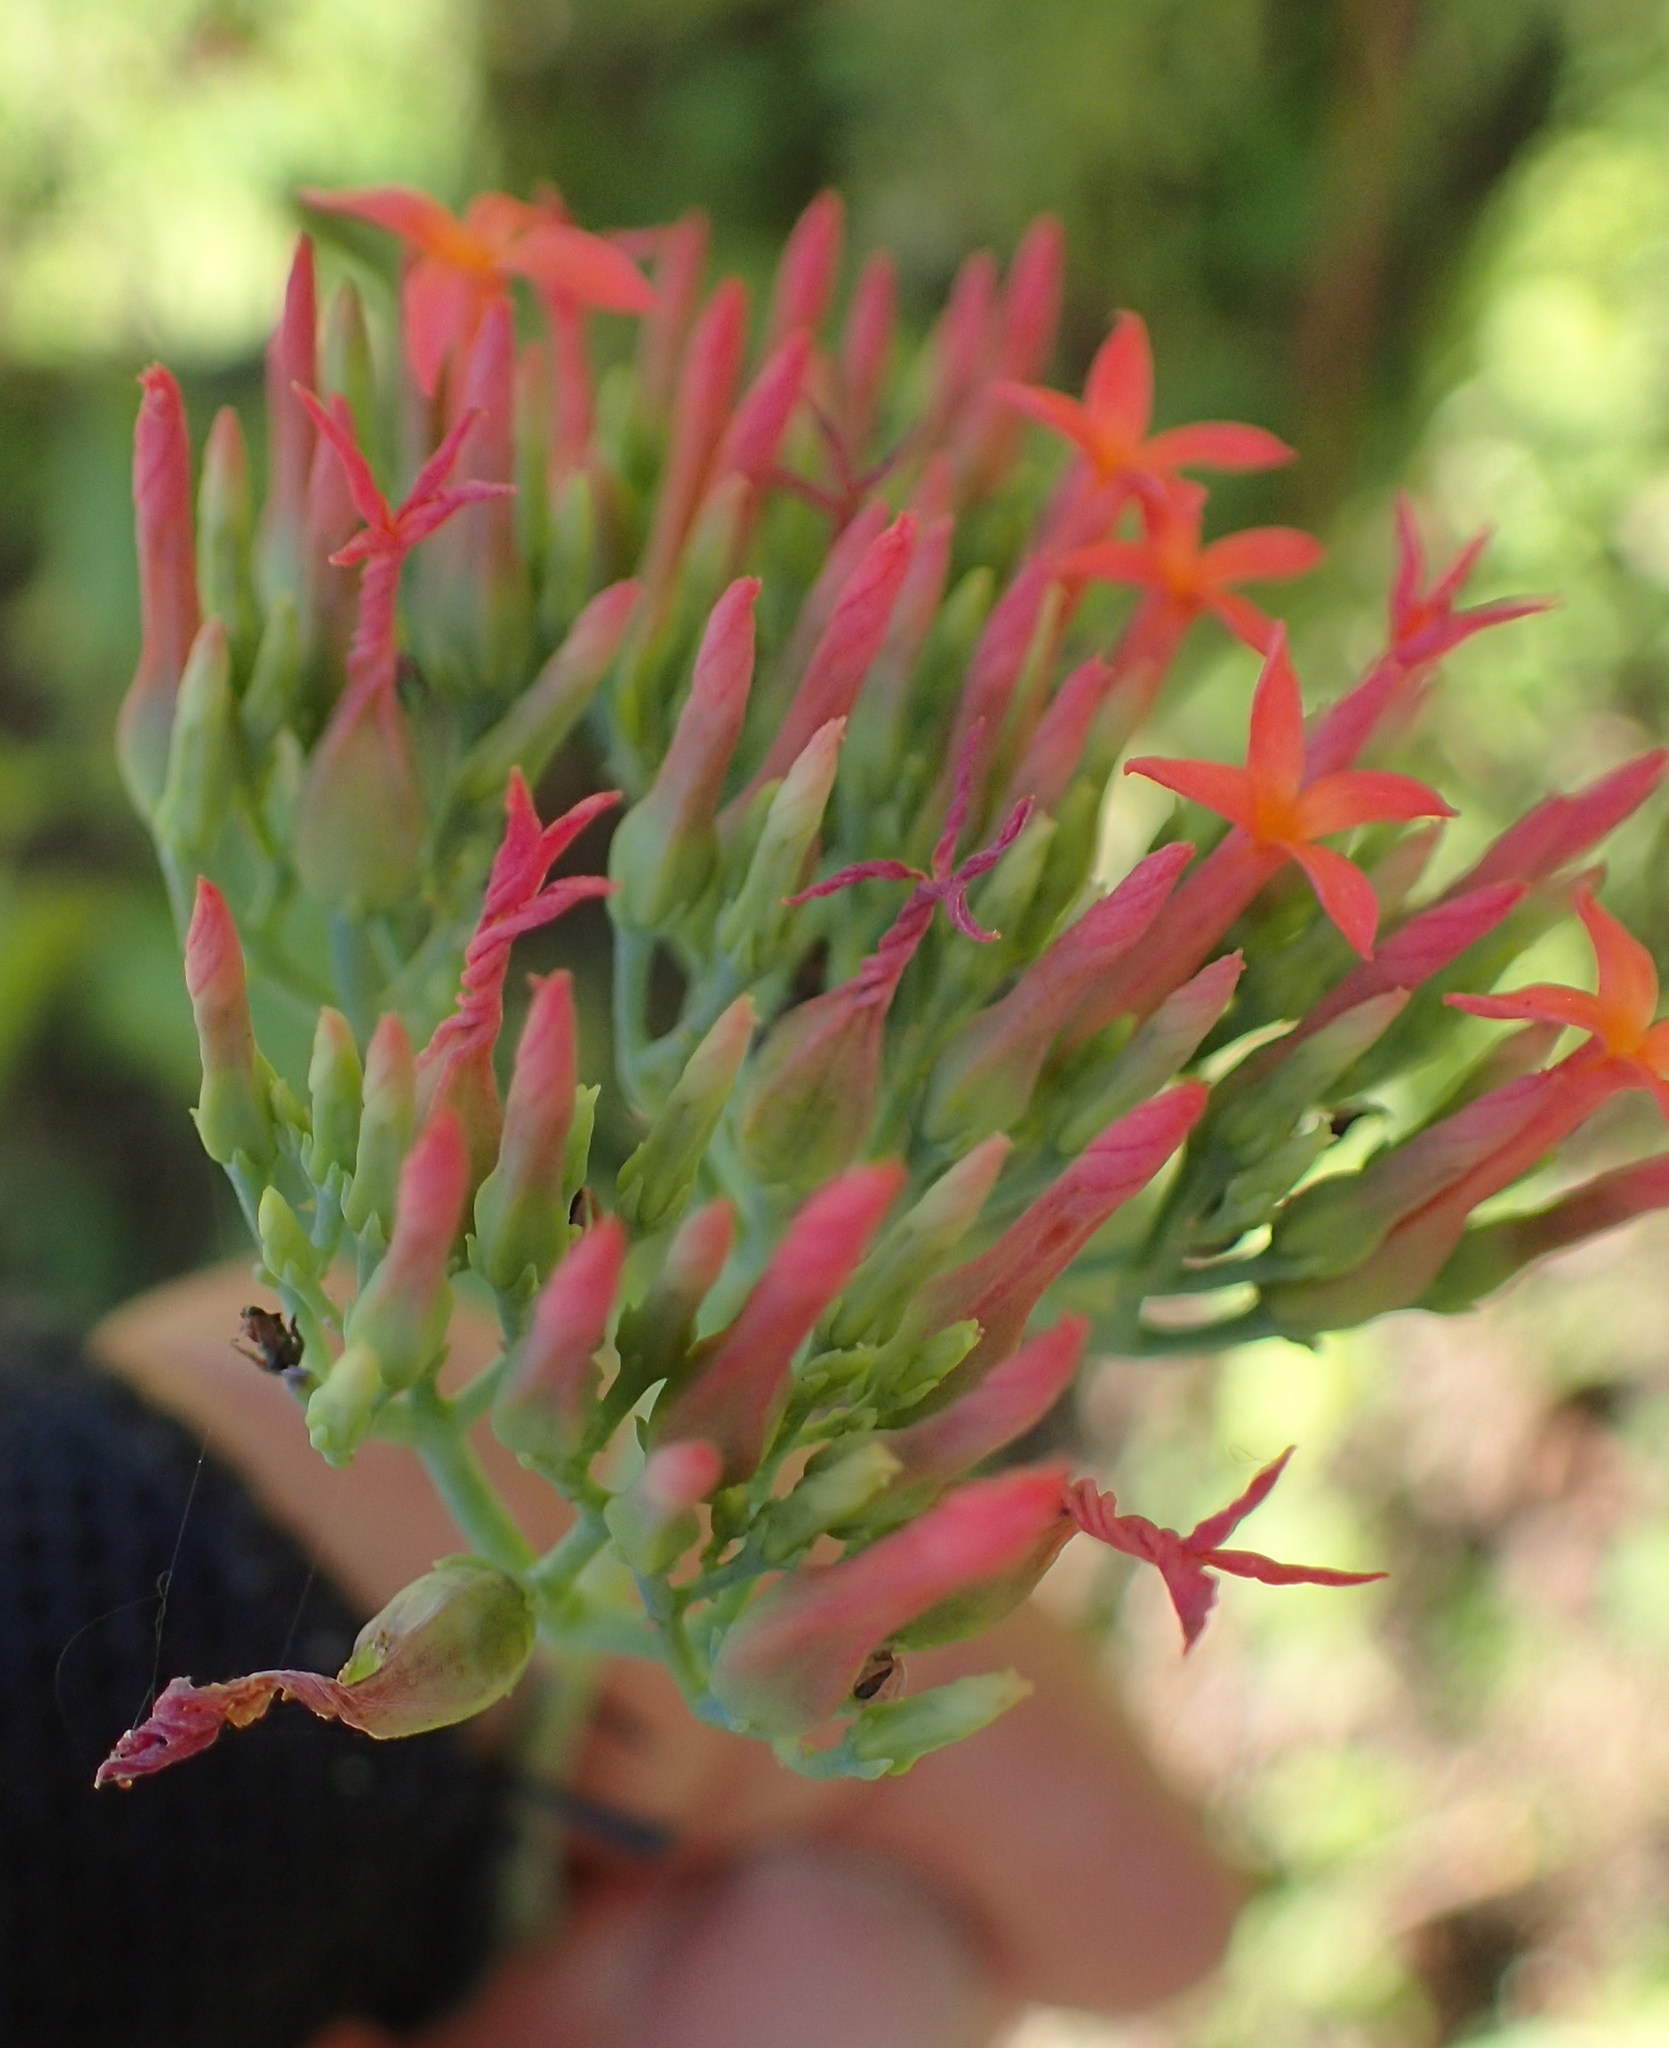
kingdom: Plantae
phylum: Tracheophyta
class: Magnoliopsida
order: Saxifragales
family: Crassulaceae
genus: Kalanchoe
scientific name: Kalanchoe rotundifolia
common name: Common kalanchoe
